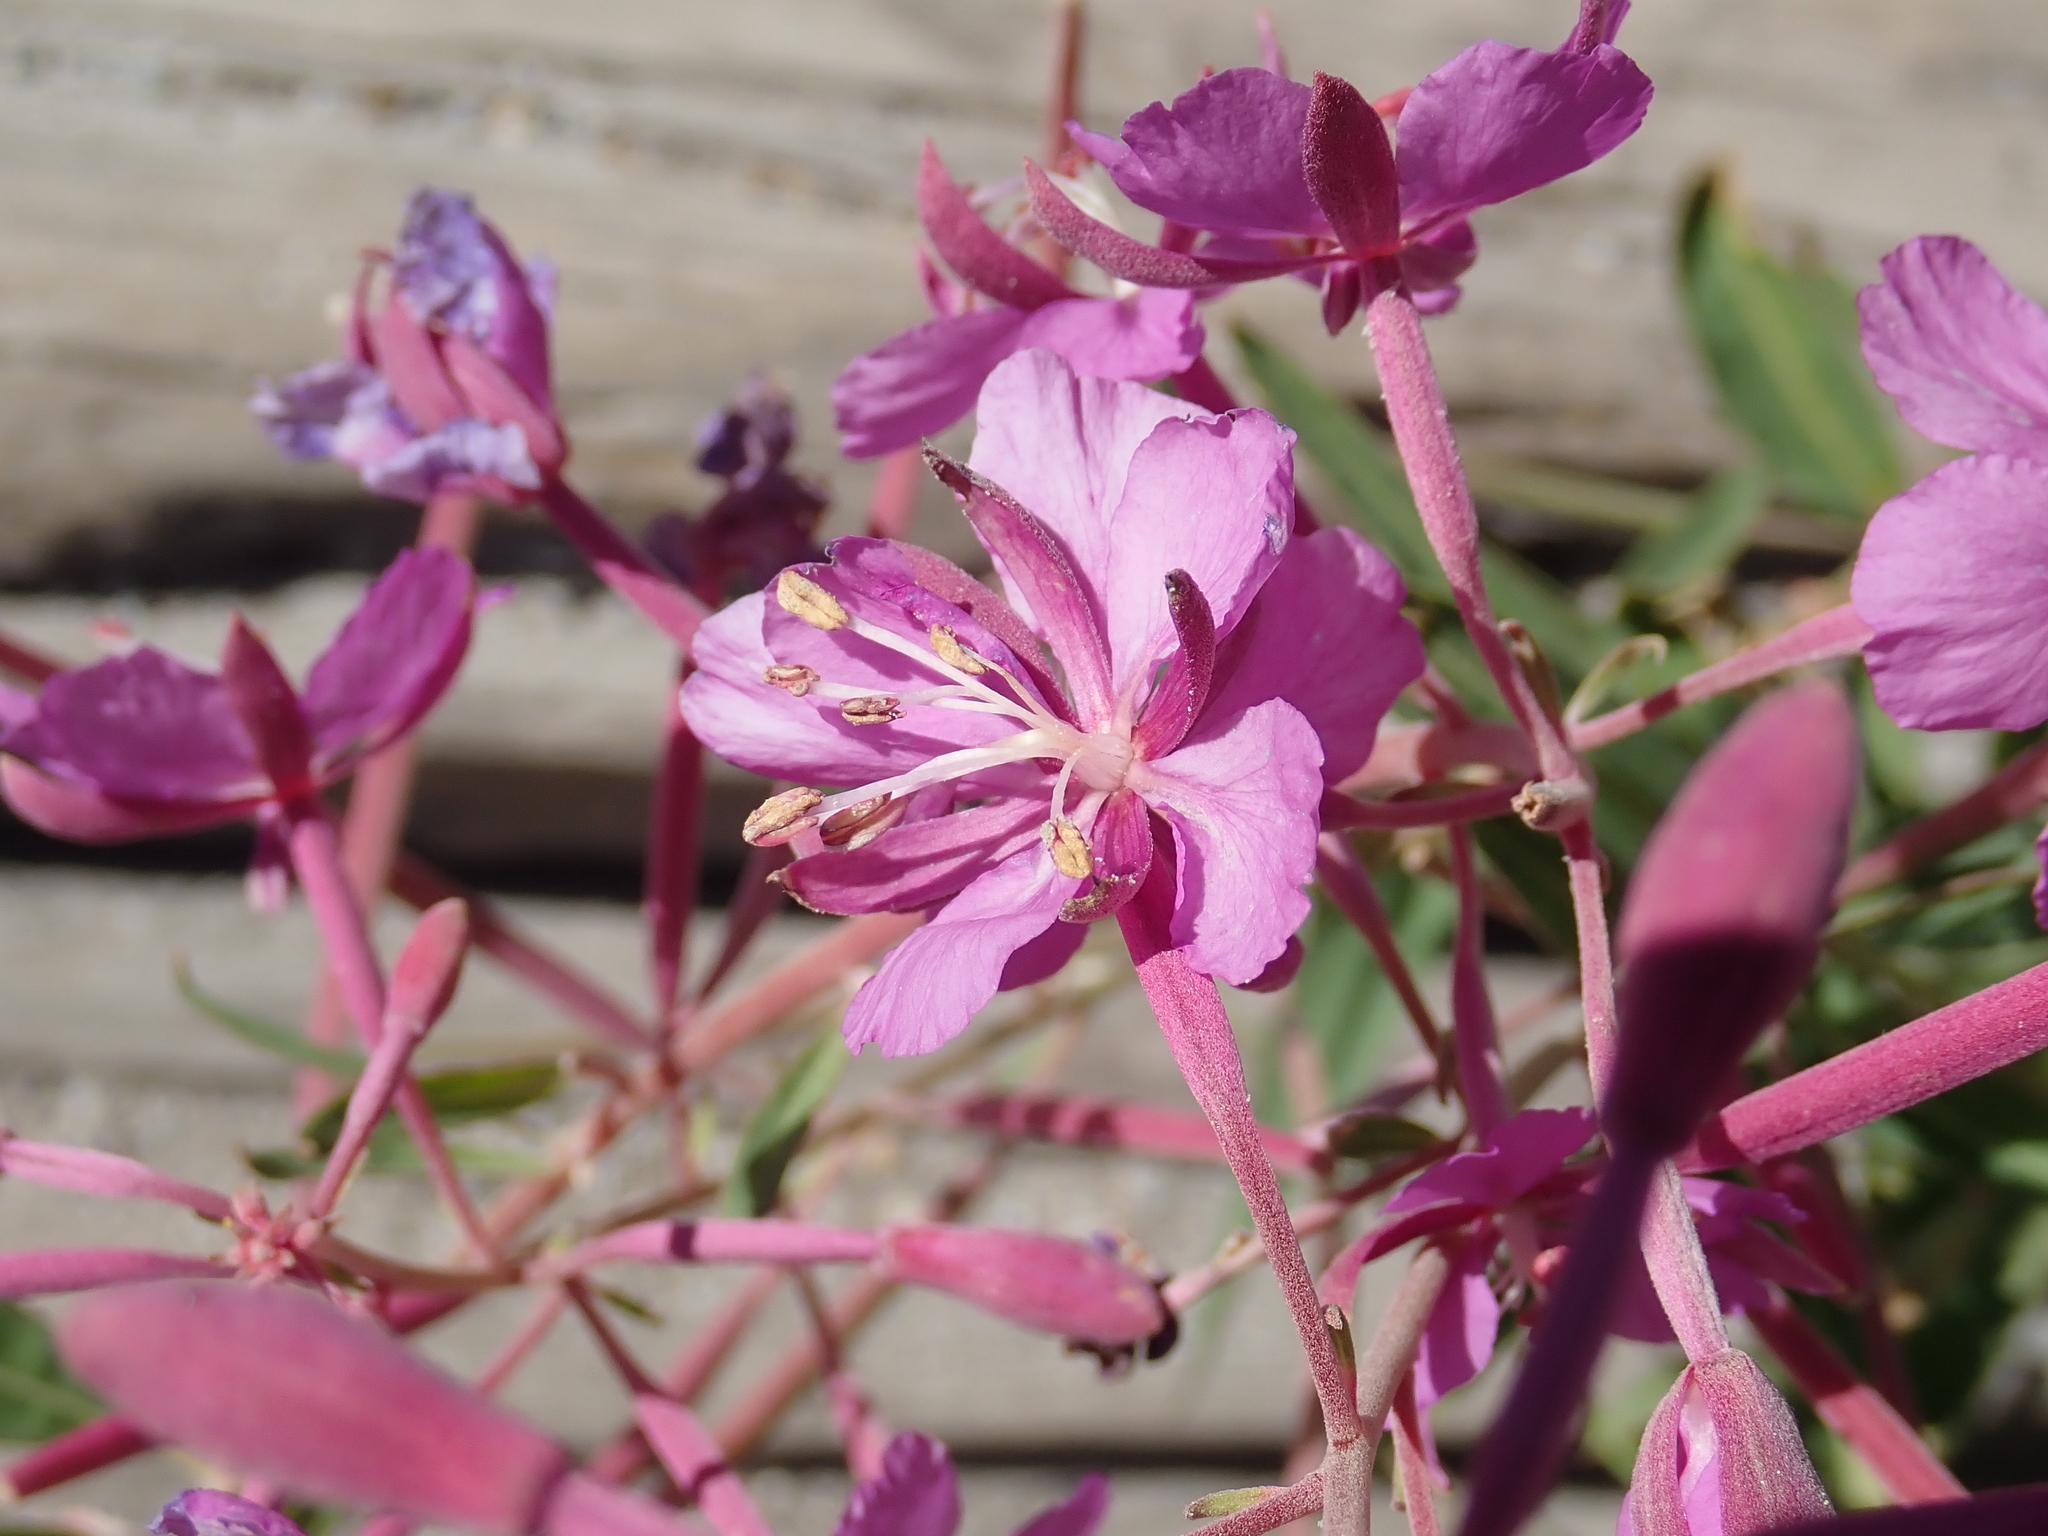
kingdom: Plantae
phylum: Tracheophyta
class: Magnoliopsida
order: Myrtales
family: Onagraceae
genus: Chamaenerion
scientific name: Chamaenerion angustifolium
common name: Fireweed
